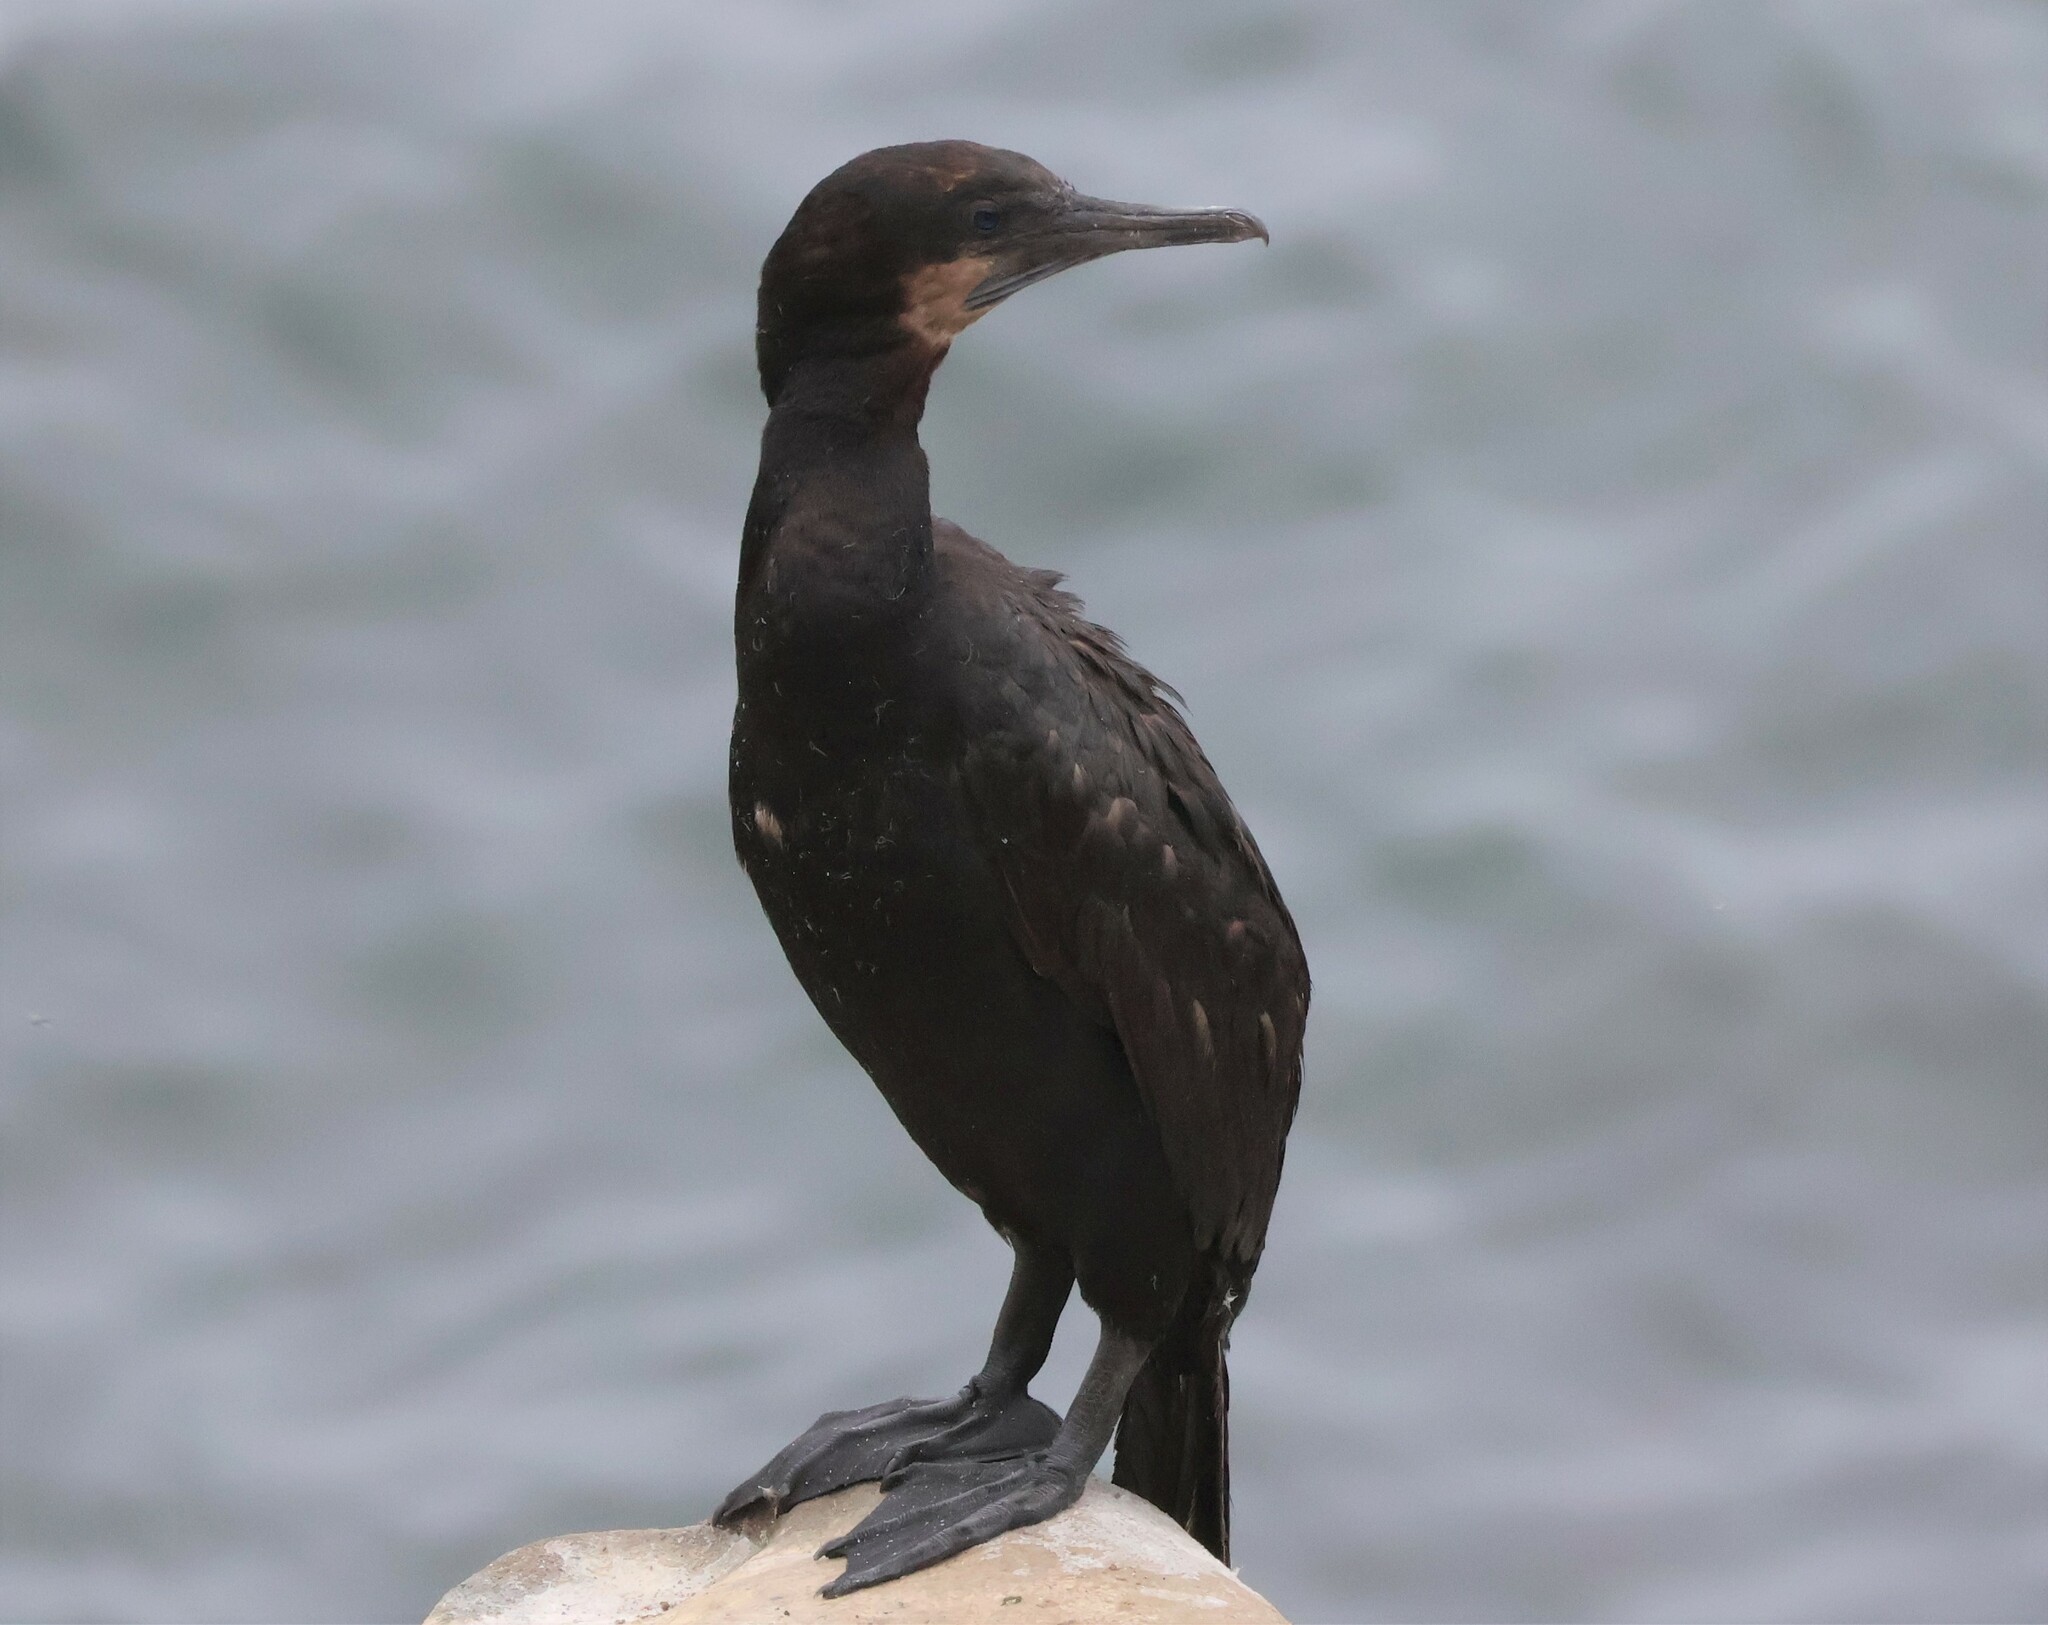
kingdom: Animalia
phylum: Chordata
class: Aves
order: Suliformes
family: Phalacrocoracidae
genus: Urile
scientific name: Urile penicillatus
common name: Brandt's cormorant
